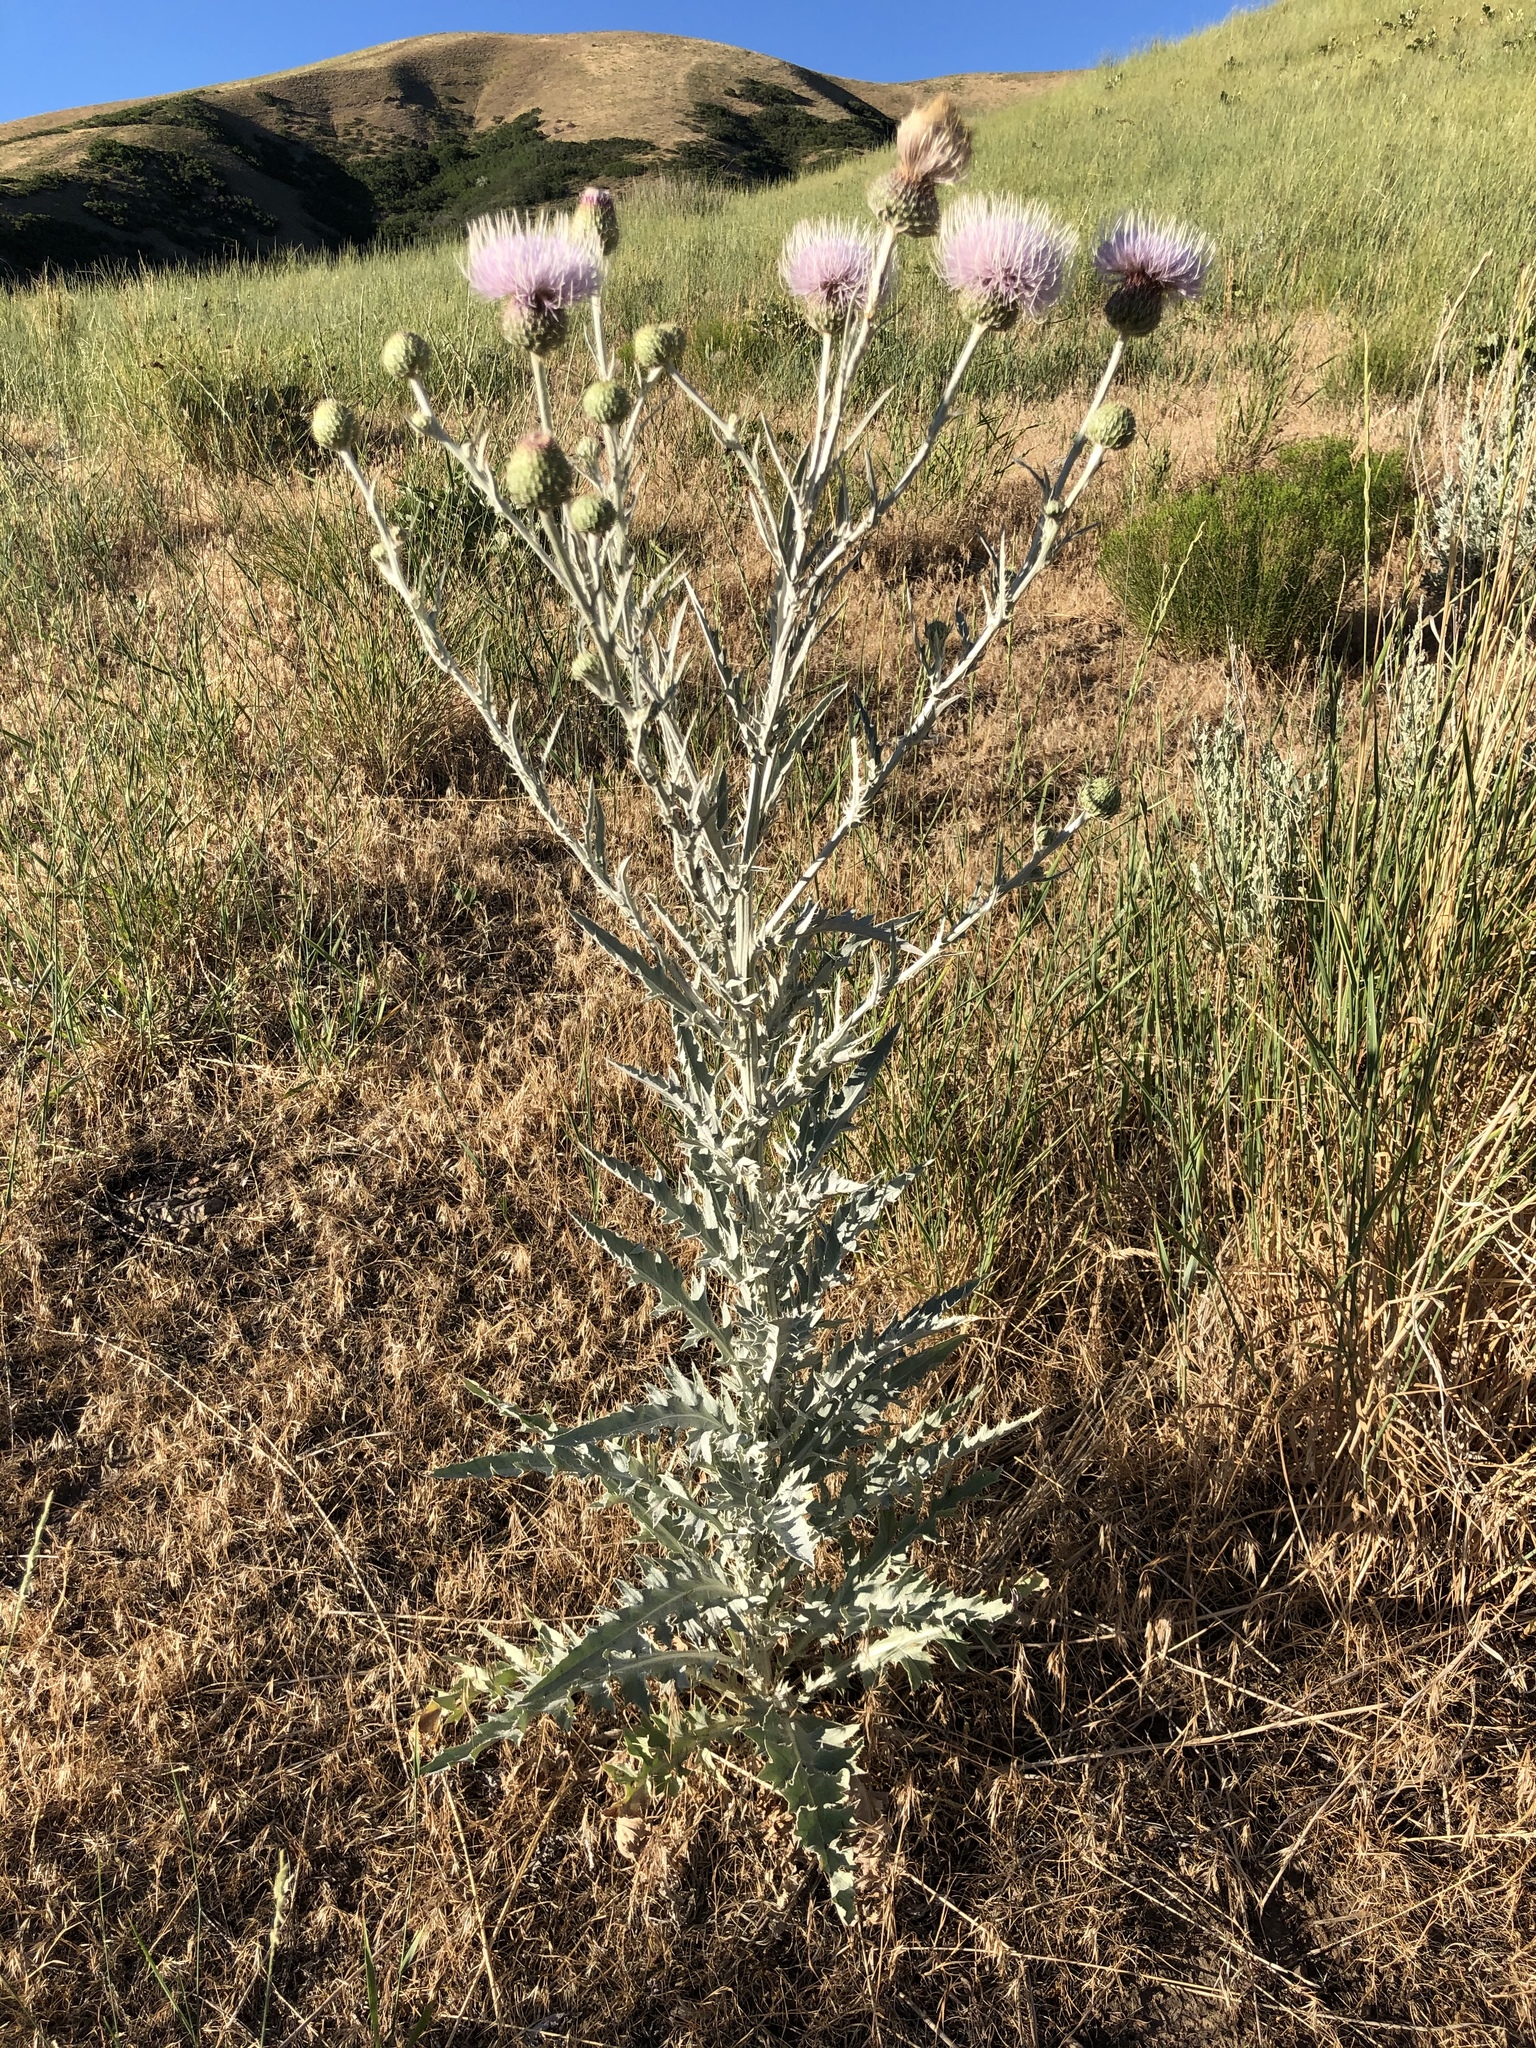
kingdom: Plantae
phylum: Tracheophyta
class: Magnoliopsida
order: Asterales
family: Asteraceae
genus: Cirsium
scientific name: Cirsium undulatum
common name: Pasture thistle
